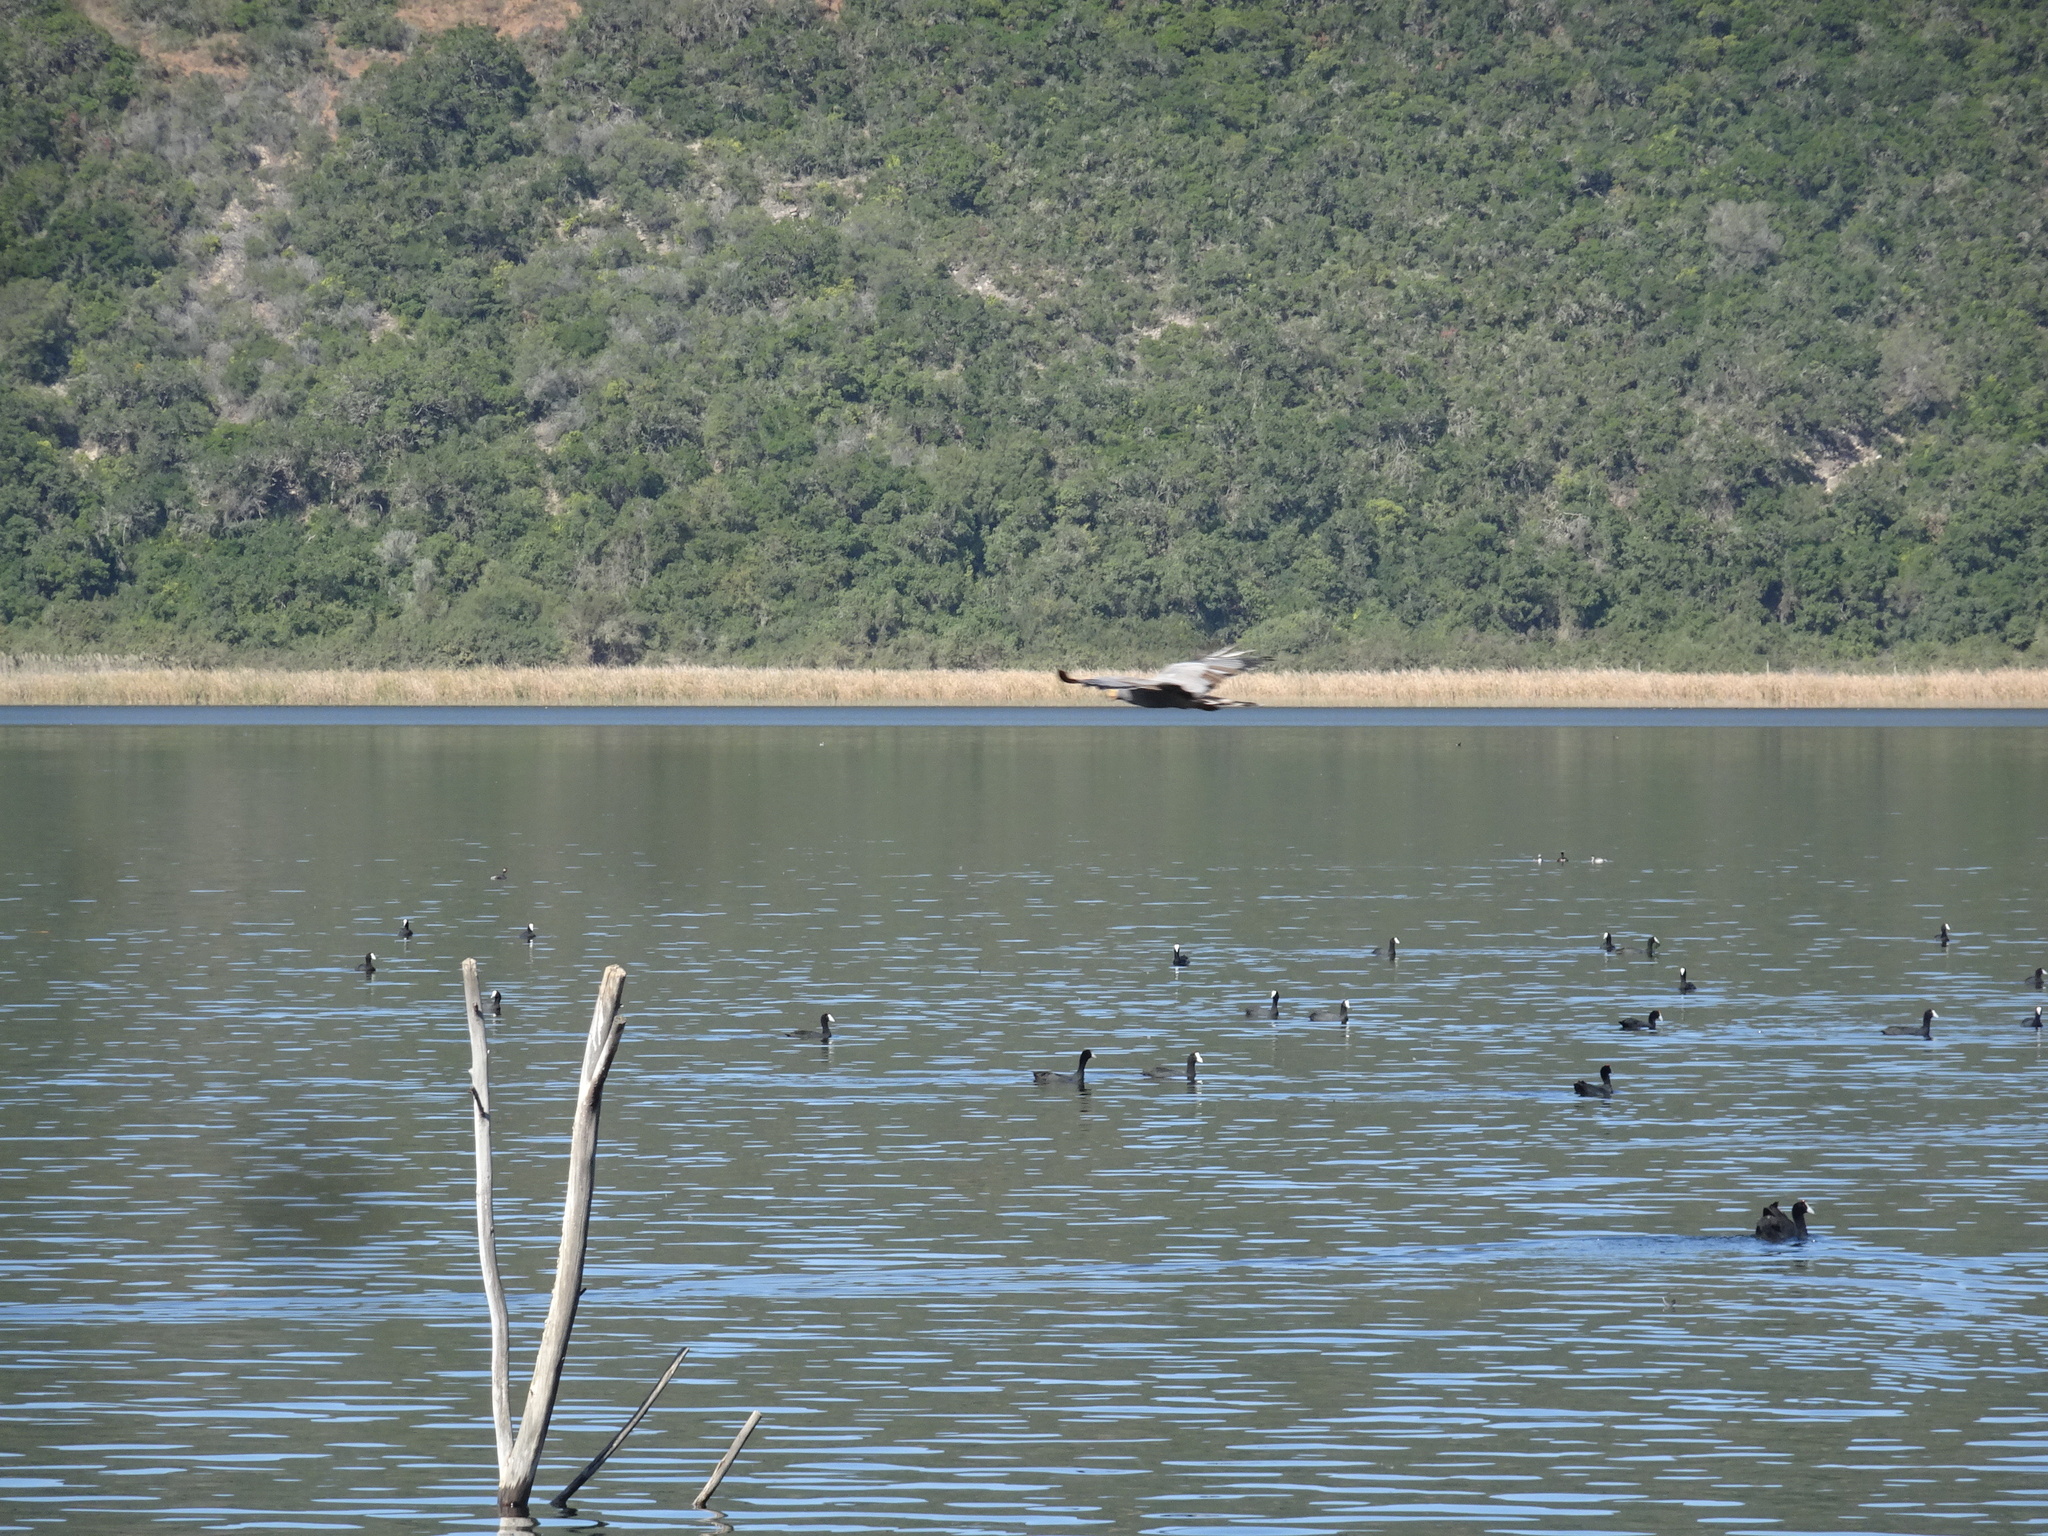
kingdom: Animalia
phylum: Chordata
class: Aves
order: Accipitriformes
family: Accipitridae
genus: Polyboroides
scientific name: Polyboroides typus
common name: African harrier-hawk
